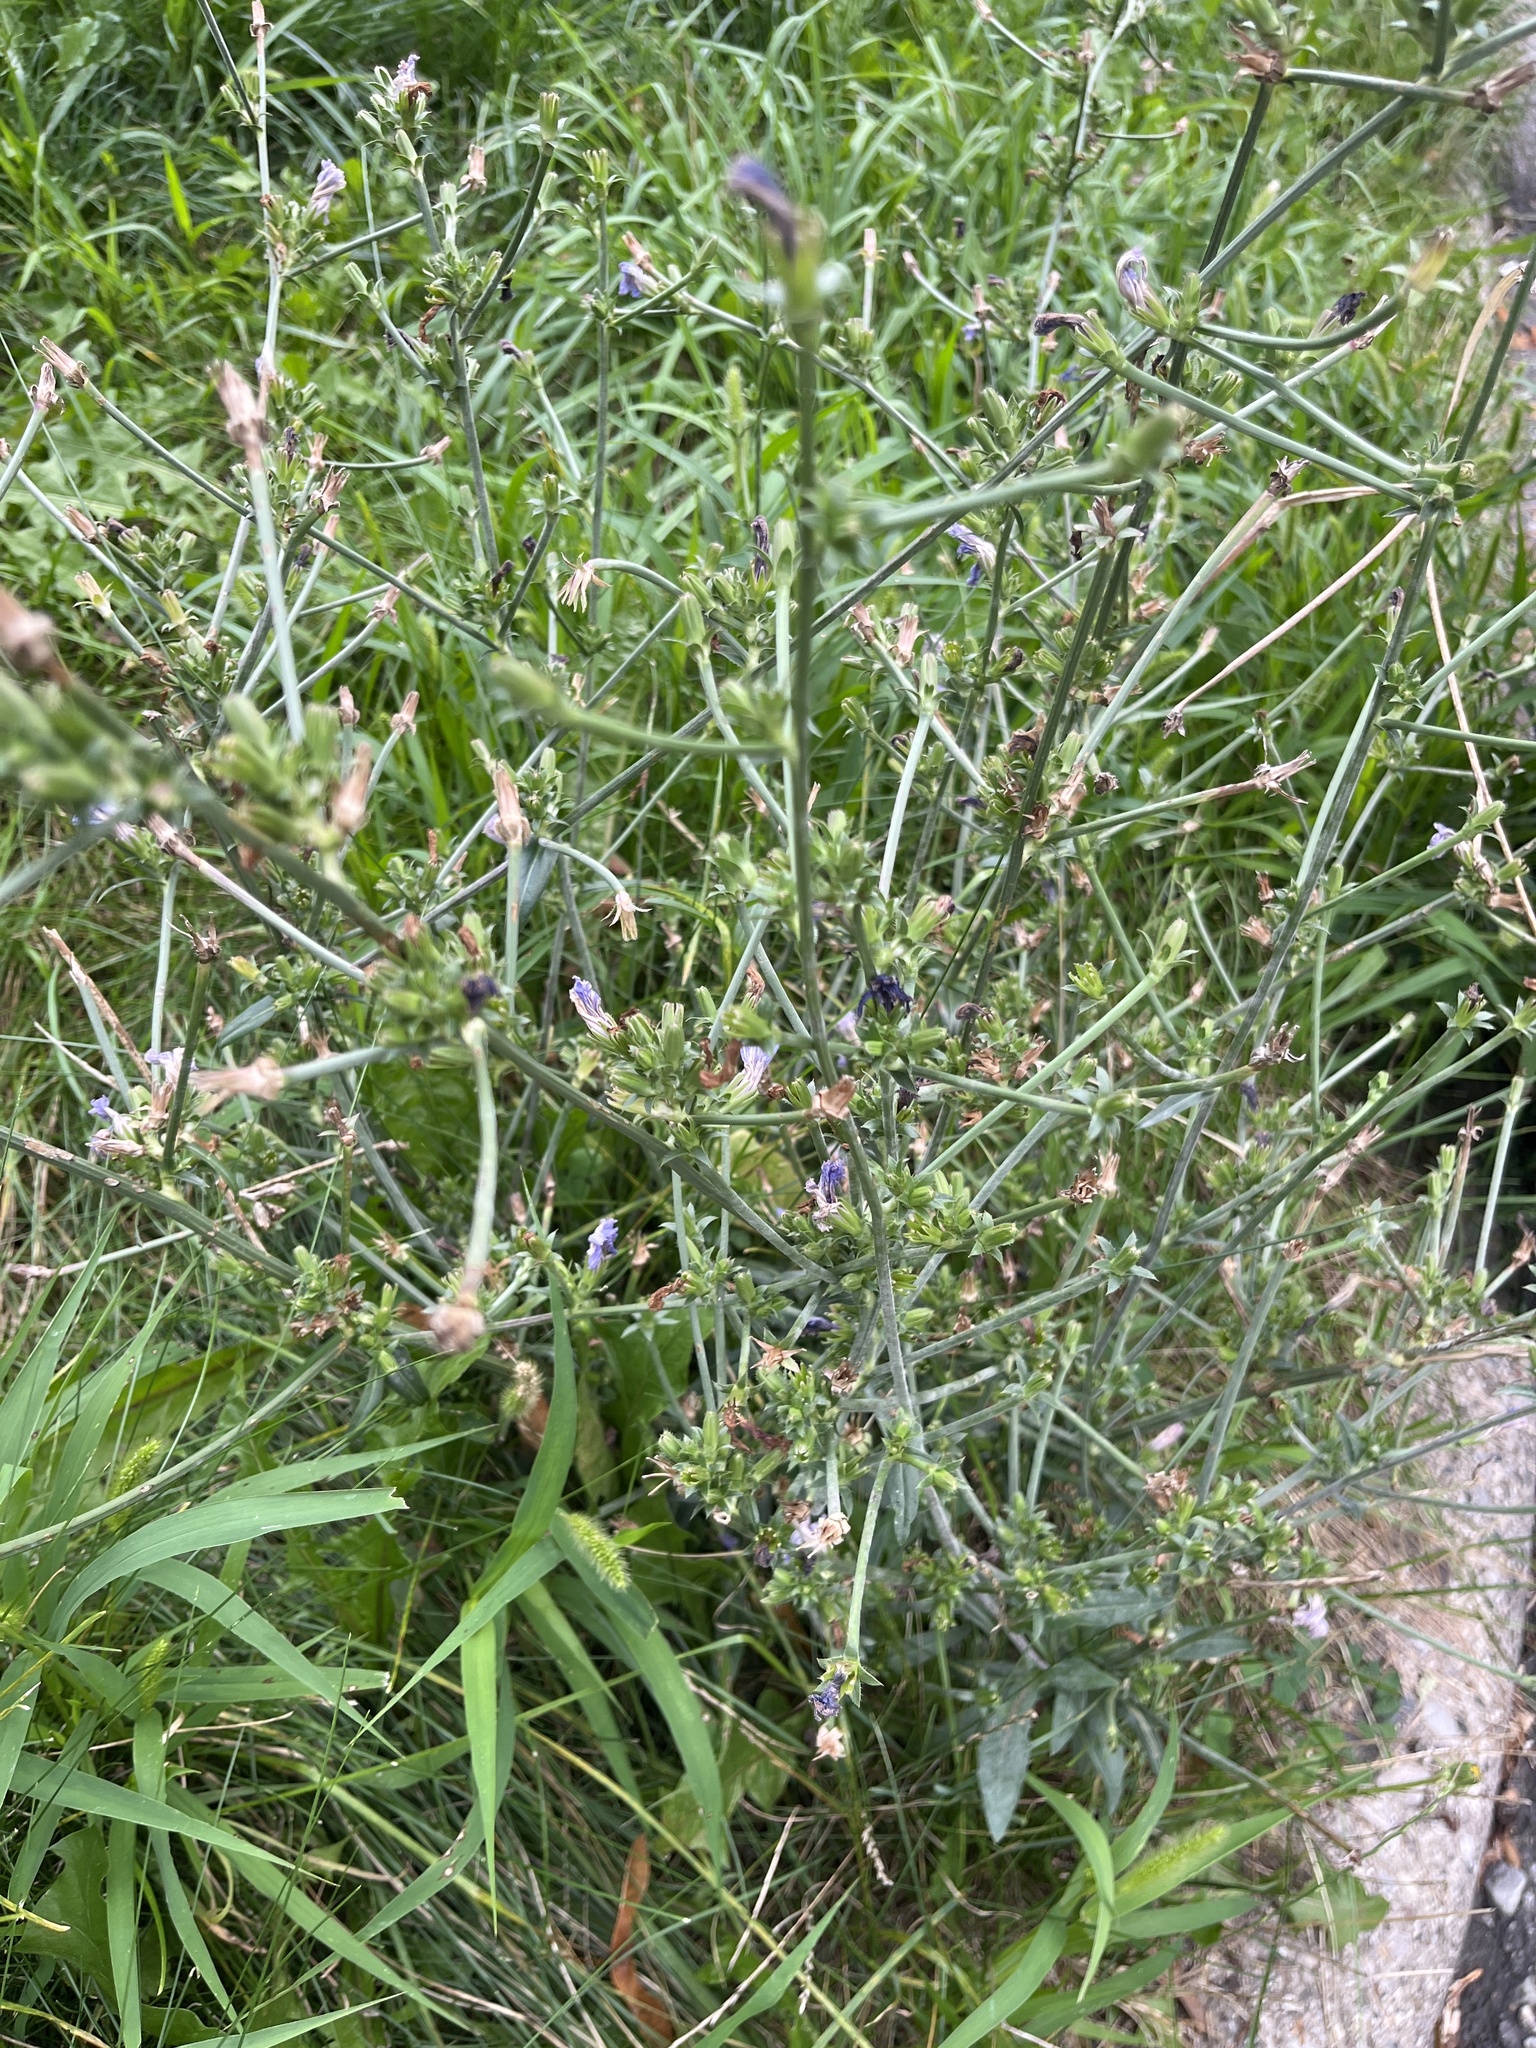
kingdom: Plantae
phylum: Tracheophyta
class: Magnoliopsida
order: Asterales
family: Asteraceae
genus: Cichorium
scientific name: Cichorium intybus
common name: Chicory
